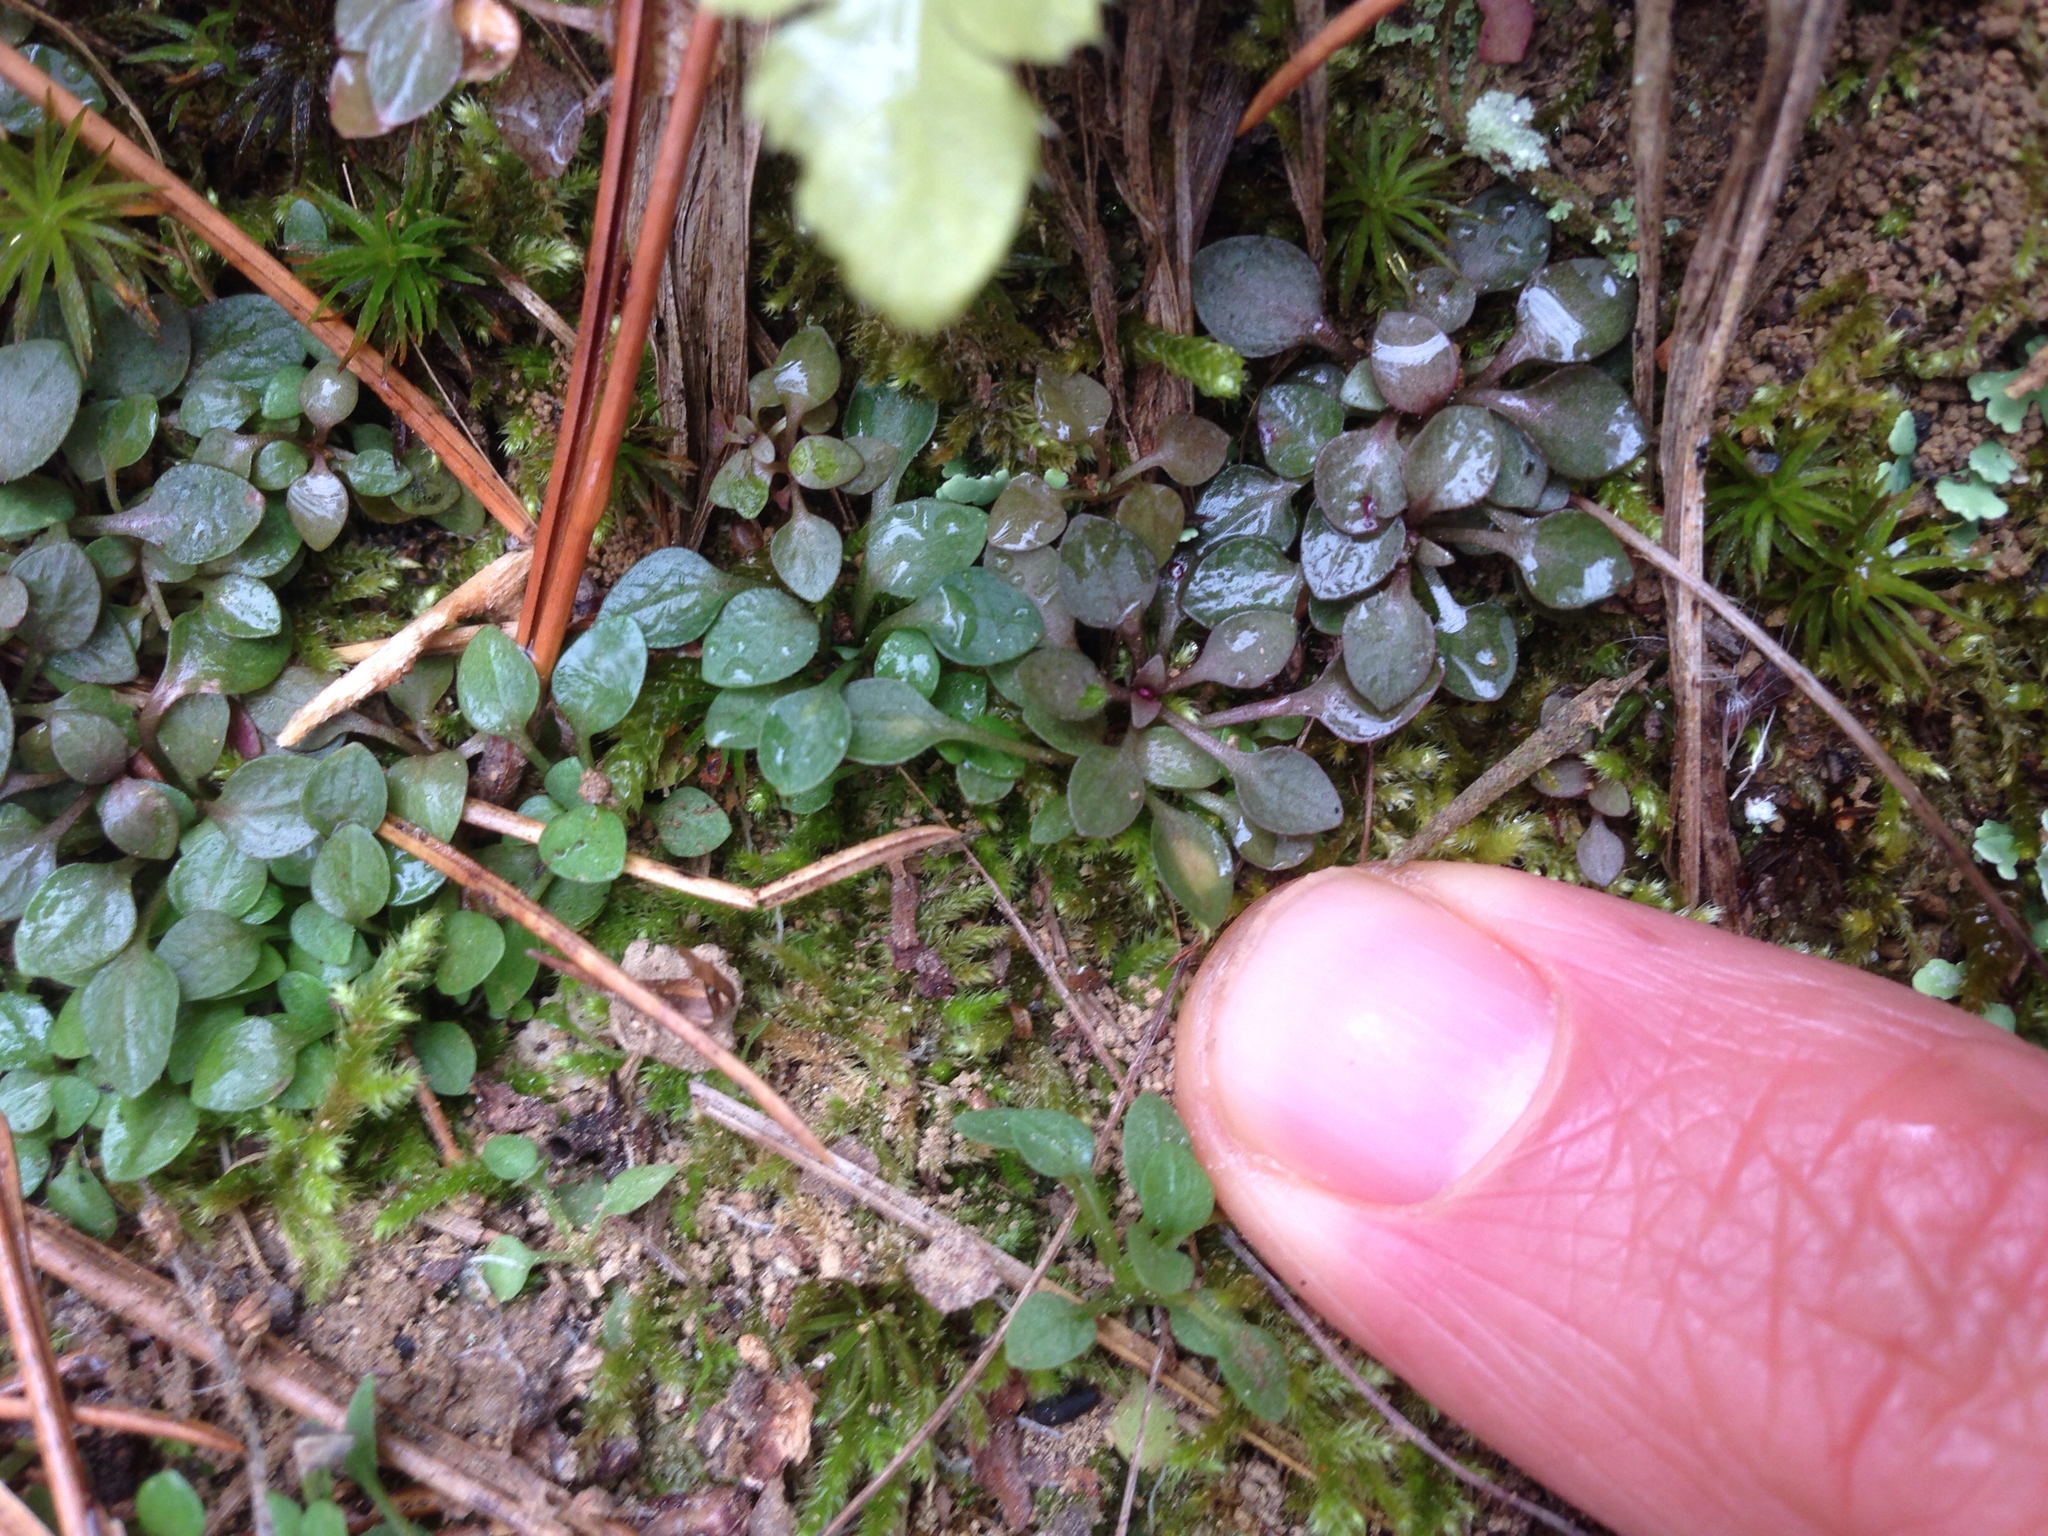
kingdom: Plantae
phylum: Tracheophyta
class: Magnoliopsida
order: Gentianales
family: Rubiaceae
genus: Houstonia
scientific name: Houstonia caerulea
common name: Bluets
